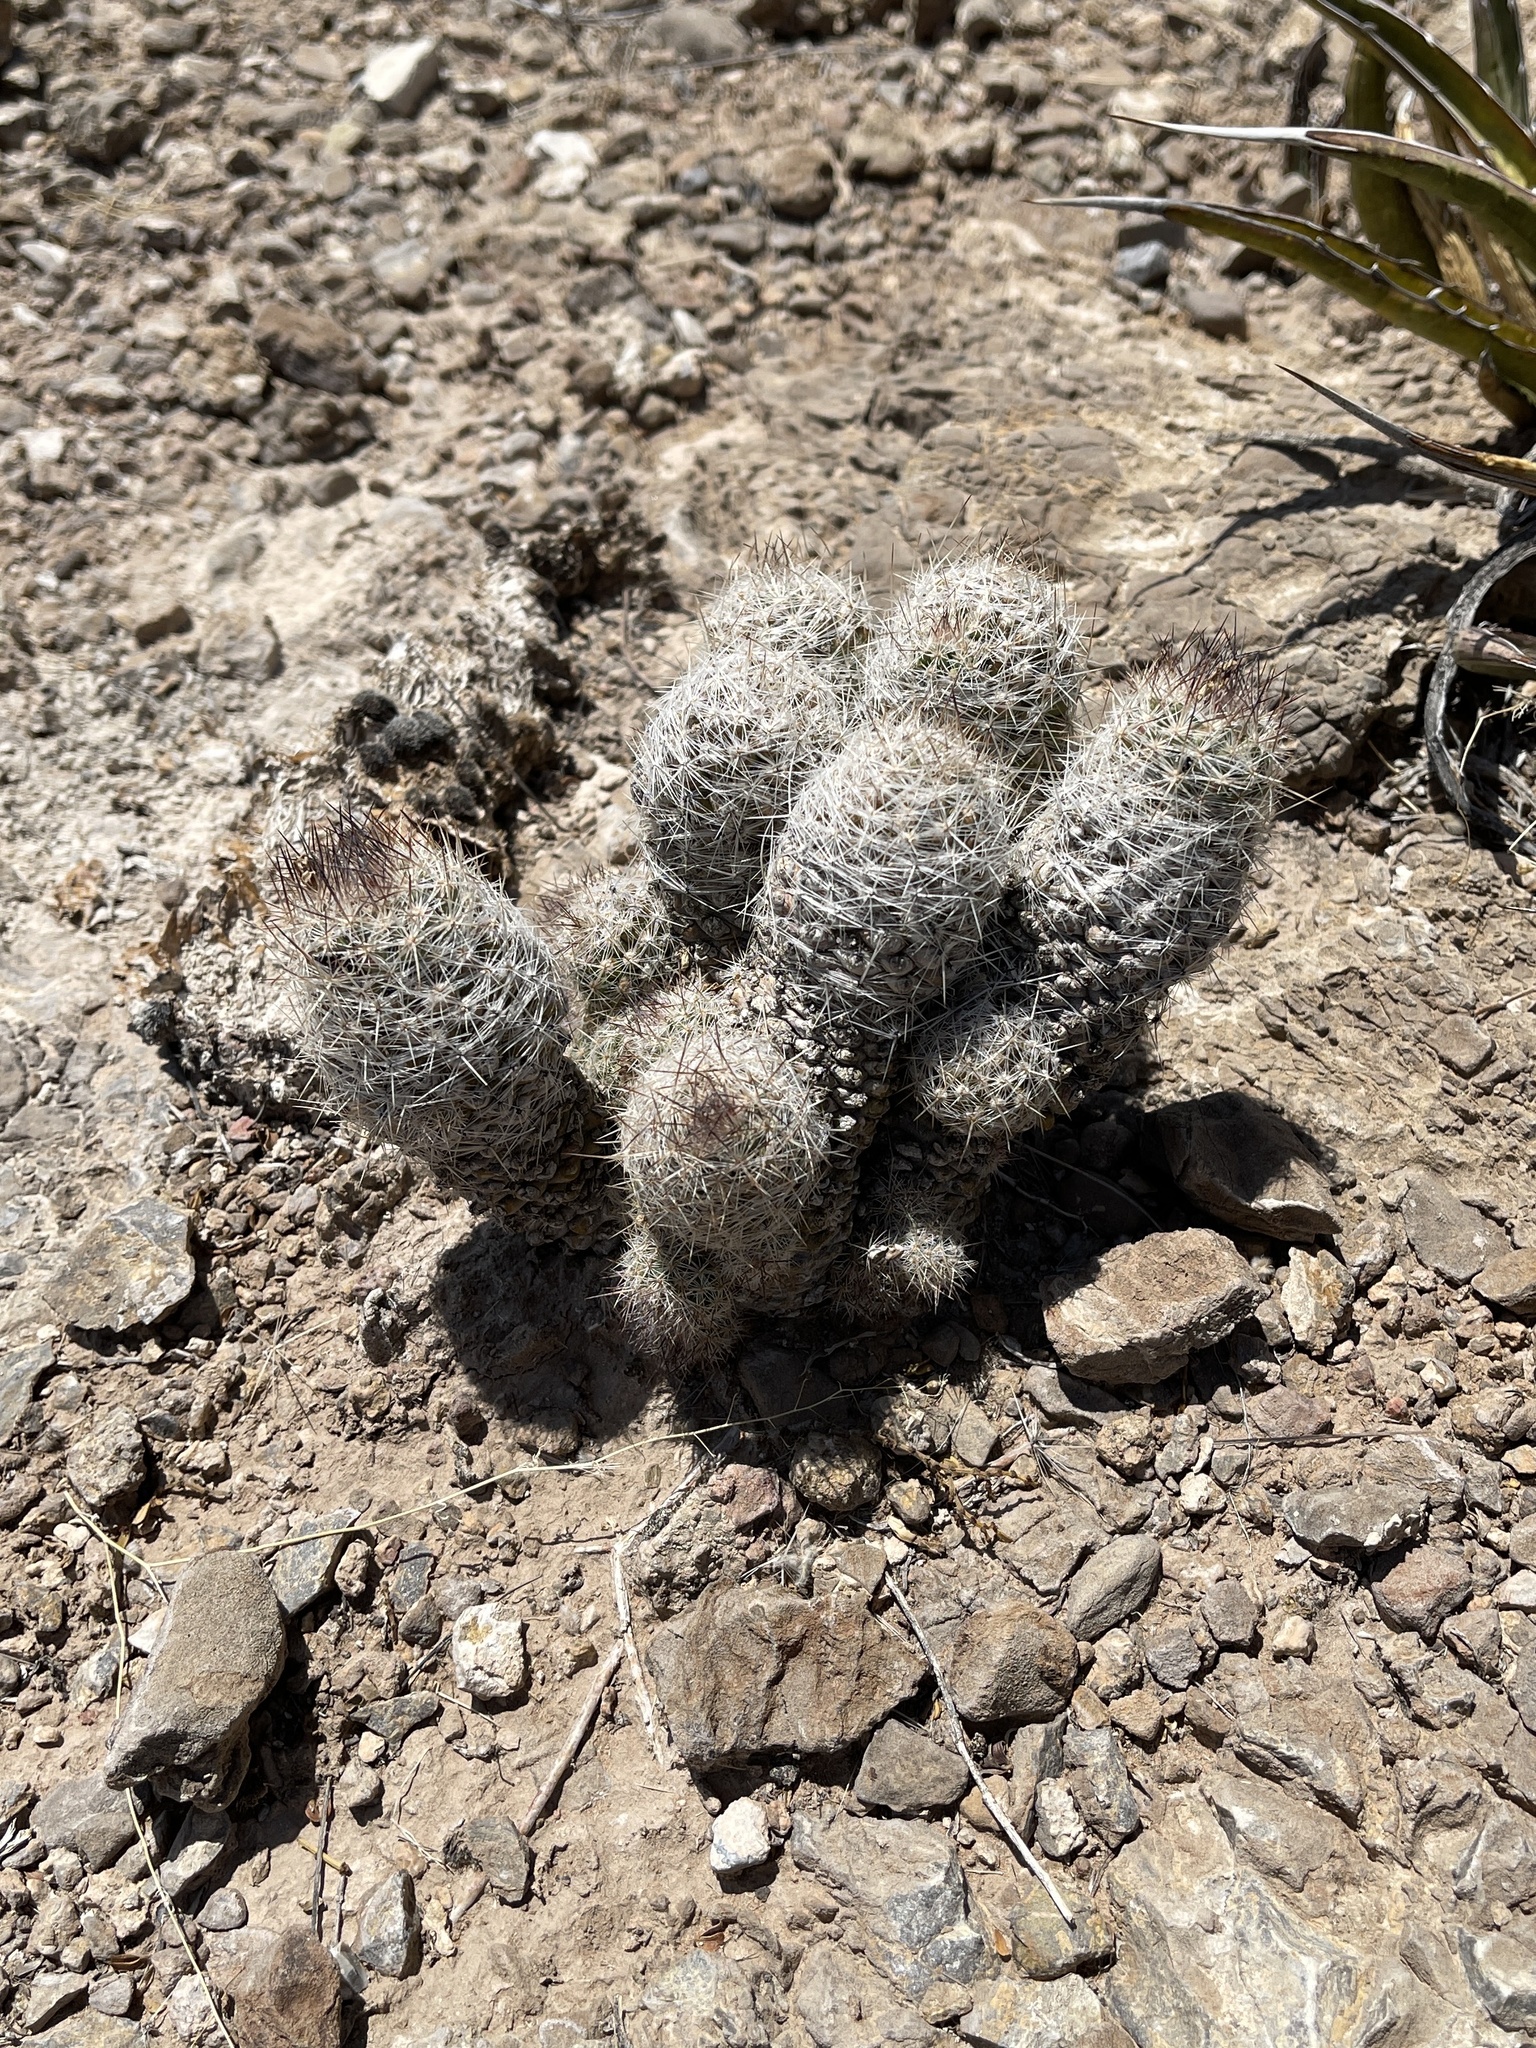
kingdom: Plantae
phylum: Tracheophyta
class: Magnoliopsida
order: Caryophyllales
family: Cactaceae
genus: Pelecyphora
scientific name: Pelecyphora tuberculosa
